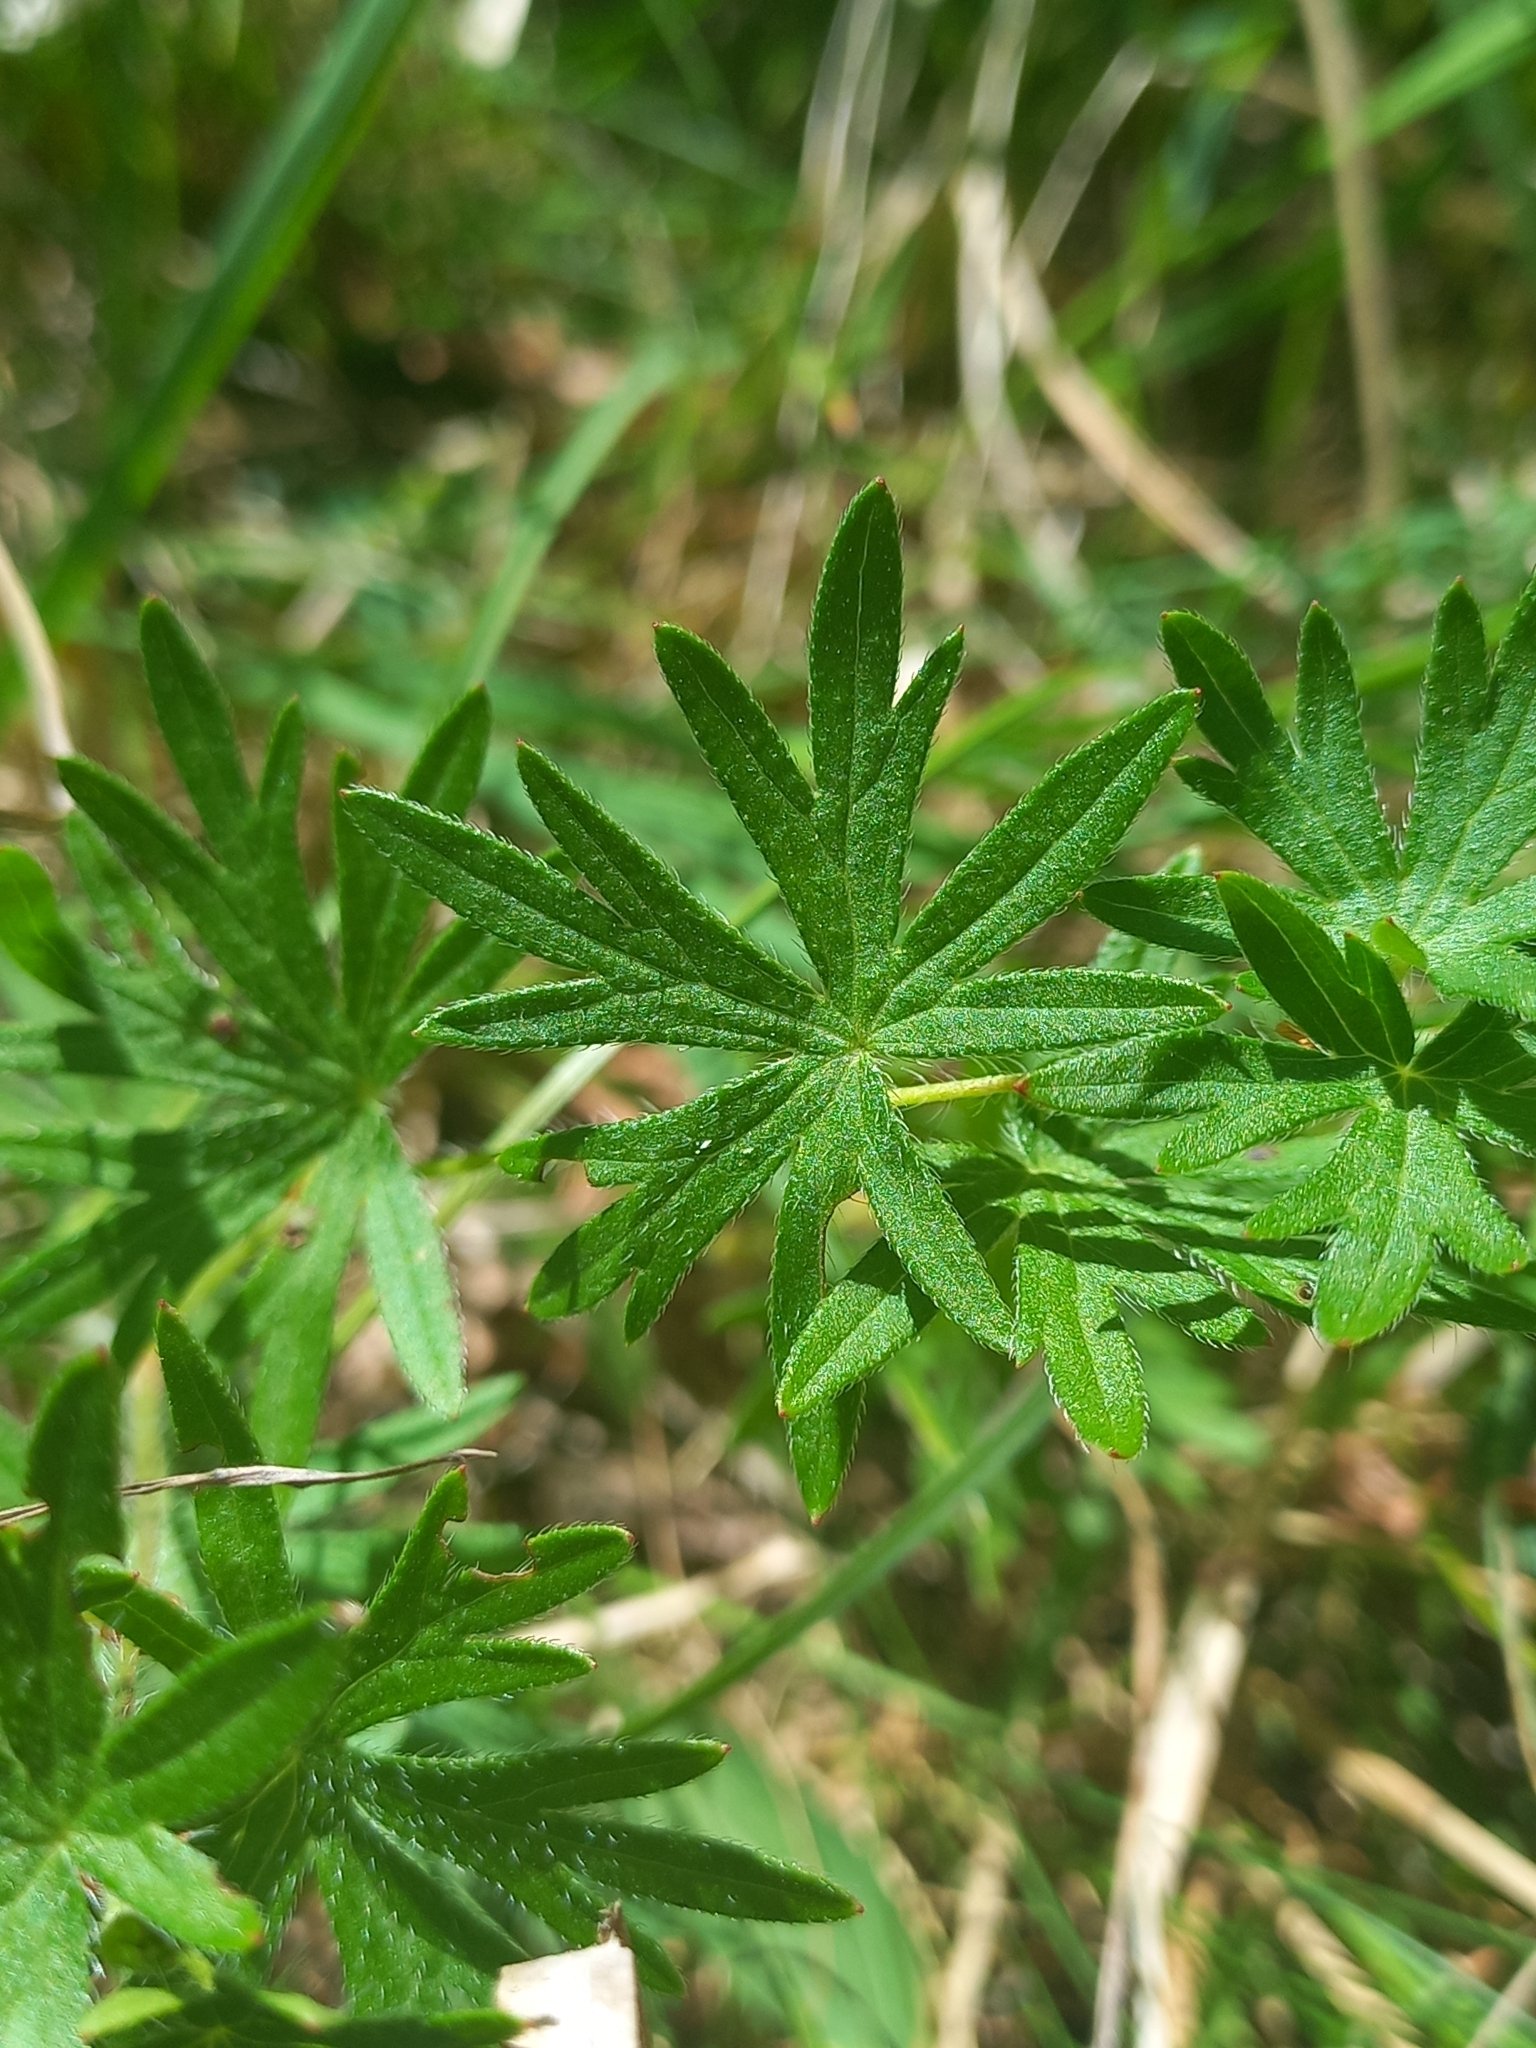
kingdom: Plantae
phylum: Tracheophyta
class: Magnoliopsida
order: Geraniales
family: Geraniaceae
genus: Geranium
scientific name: Geranium sanguineum
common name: Bloody crane's-bill
